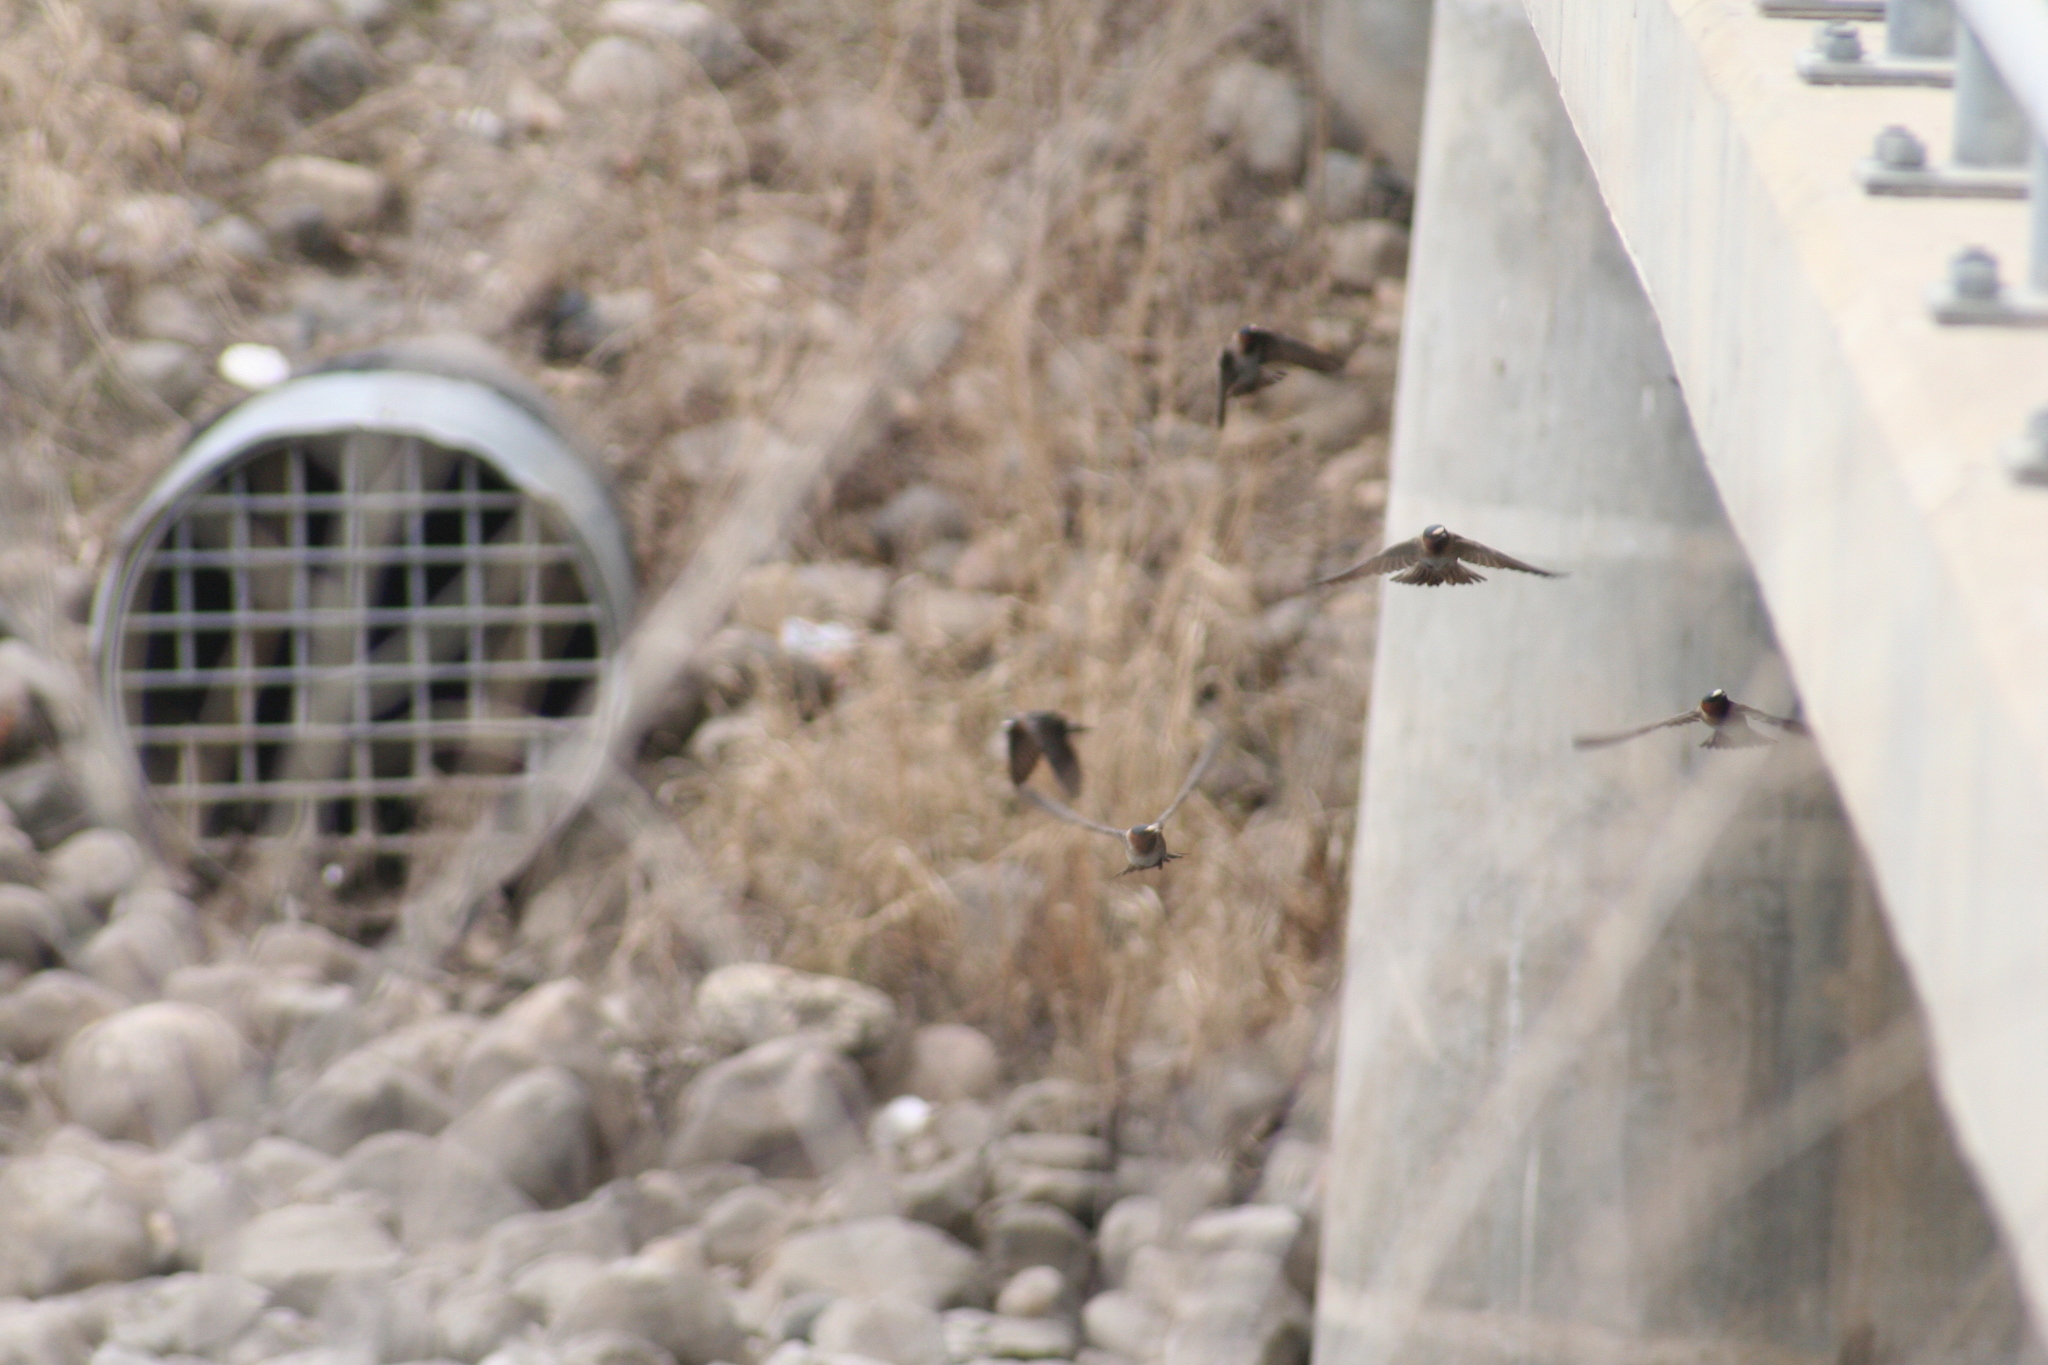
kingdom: Animalia
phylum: Chordata
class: Aves
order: Passeriformes
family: Hirundinidae
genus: Petrochelidon
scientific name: Petrochelidon pyrrhonota
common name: American cliff swallow
